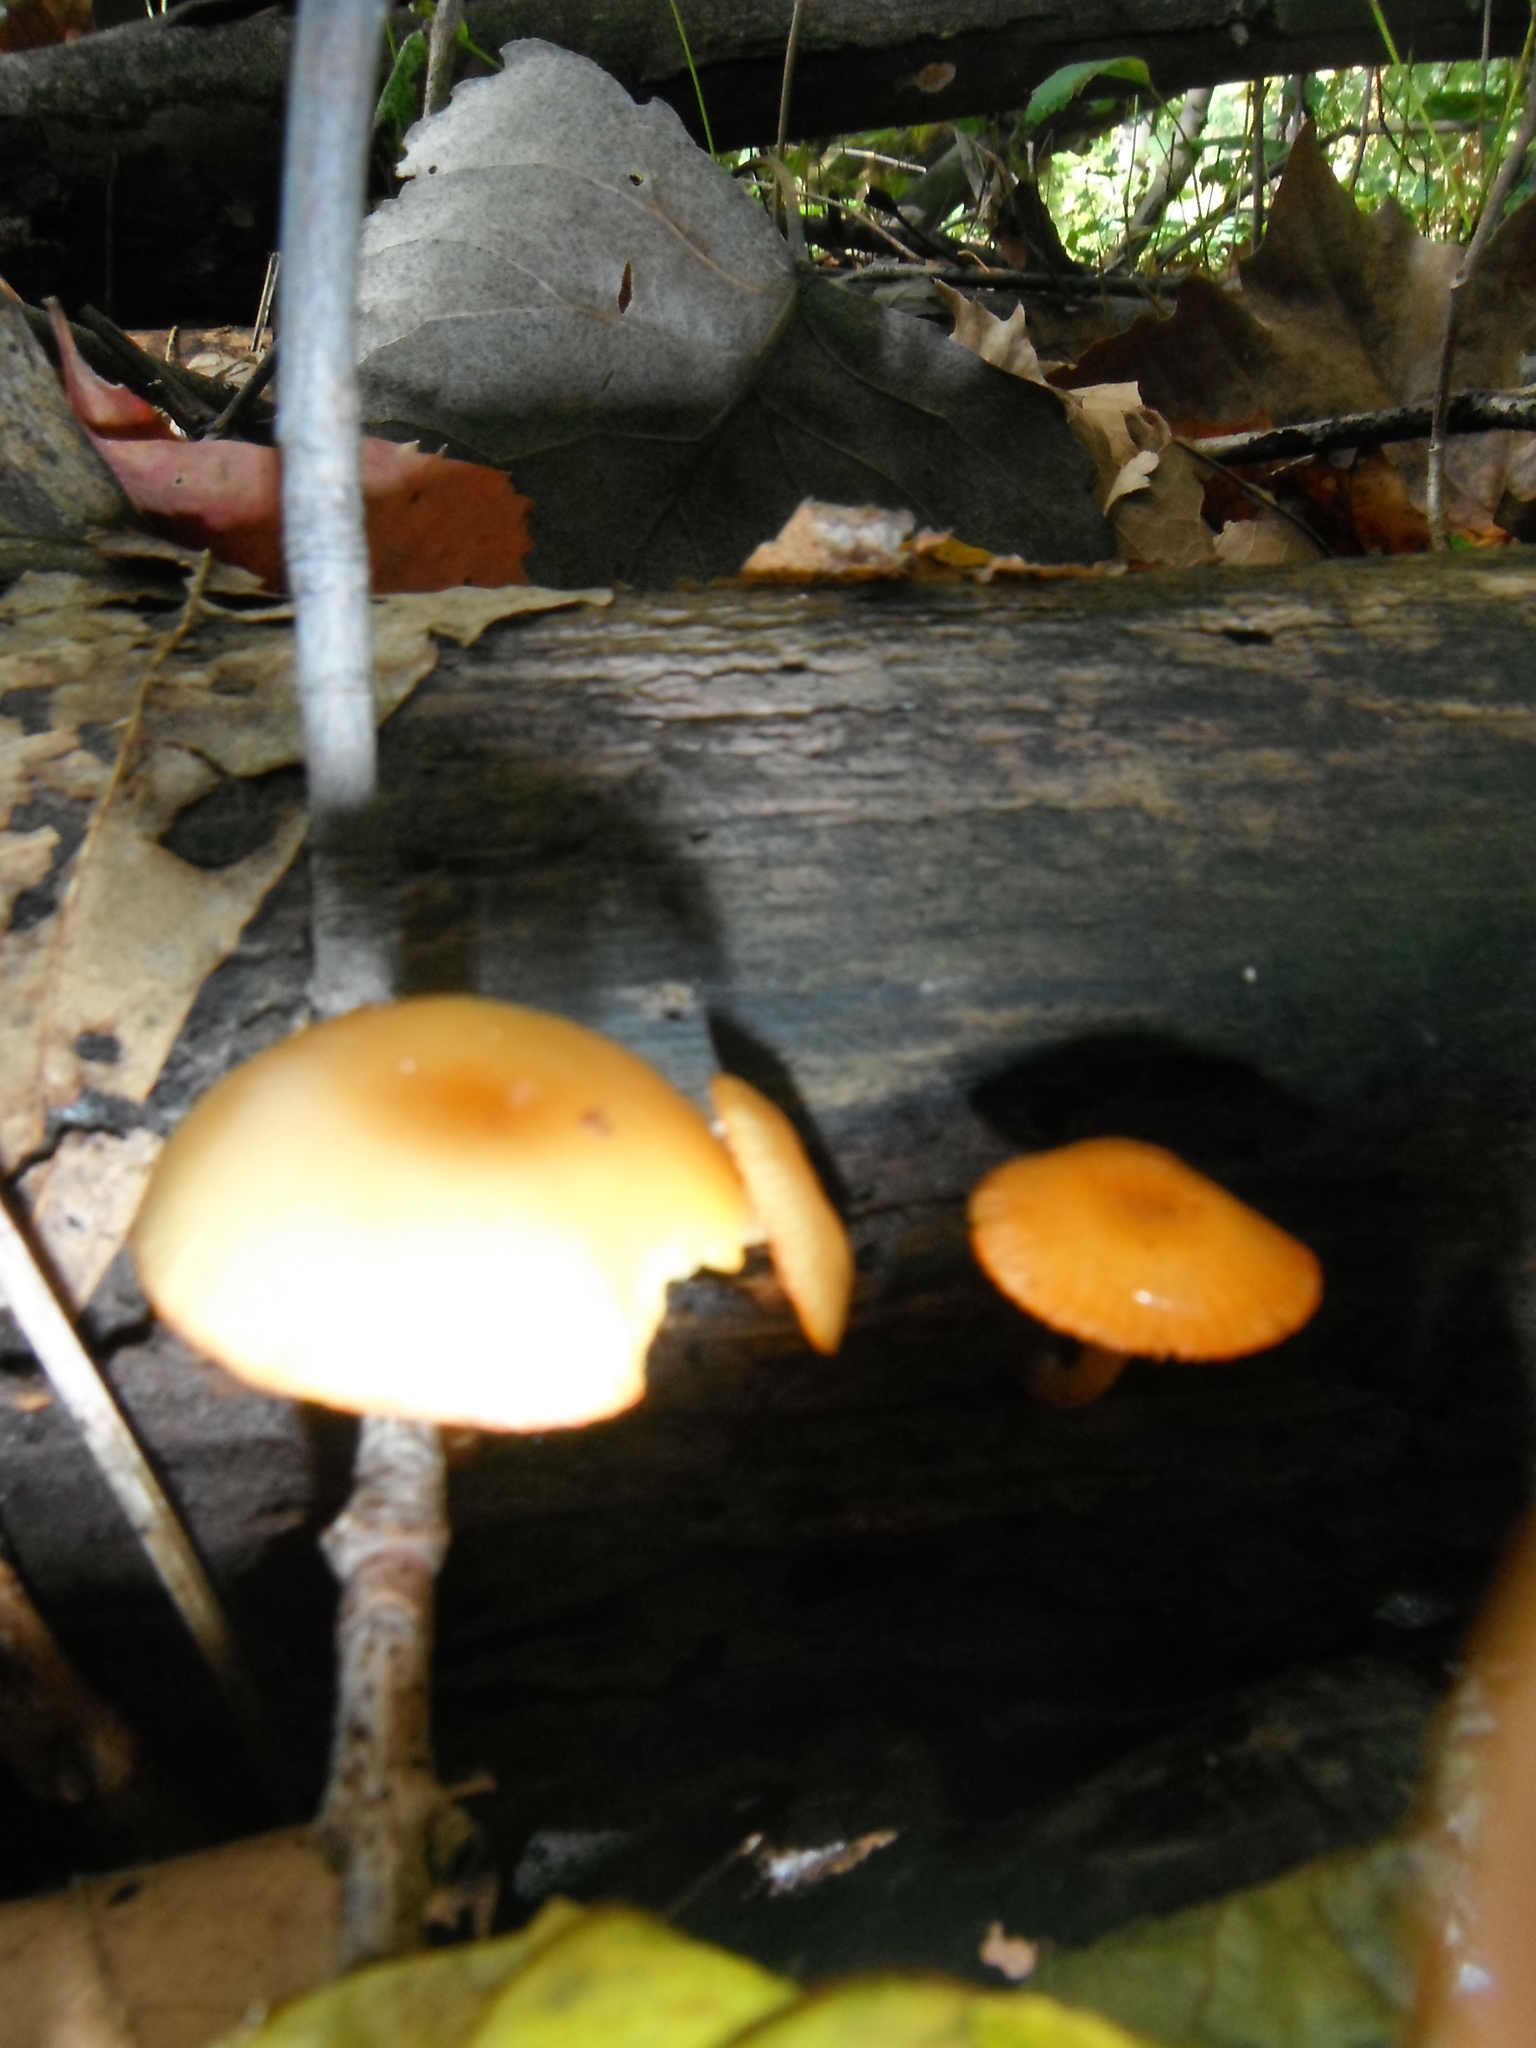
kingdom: Fungi
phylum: Basidiomycota
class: Agaricomycetes
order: Agaricales
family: Hymenogastraceae
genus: Galerina
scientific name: Galerina marginata
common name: Funeral bell
